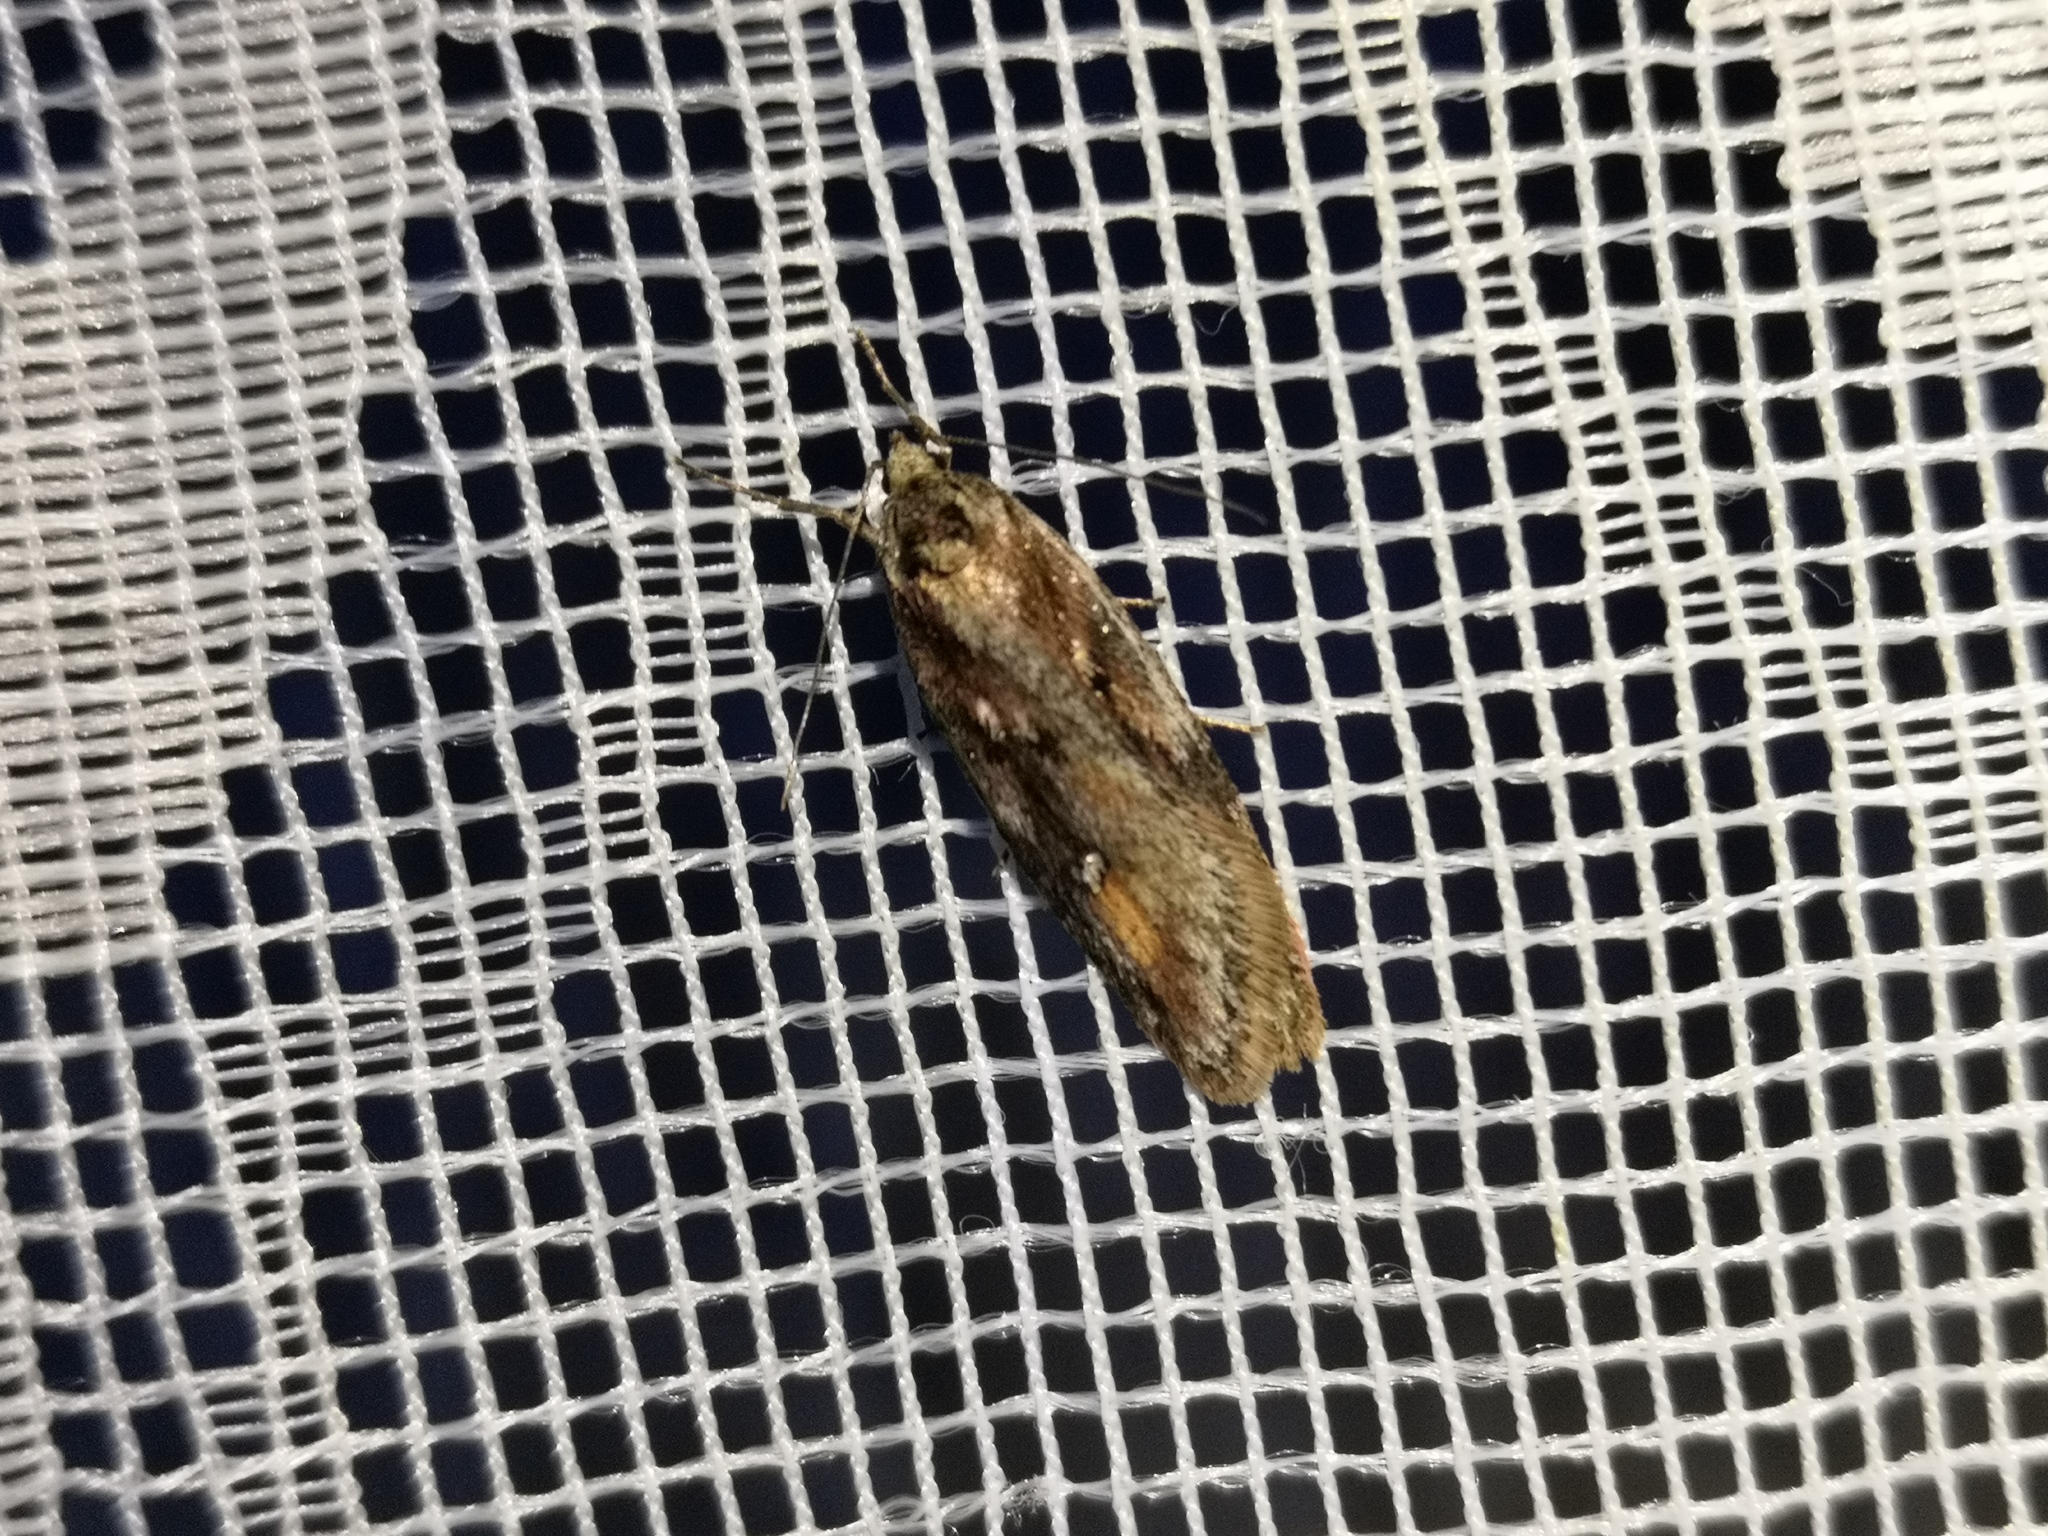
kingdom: Animalia
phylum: Arthropoda
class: Insecta
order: Lepidoptera
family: Depressariidae
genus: Semioscopis
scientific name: Semioscopis anella
